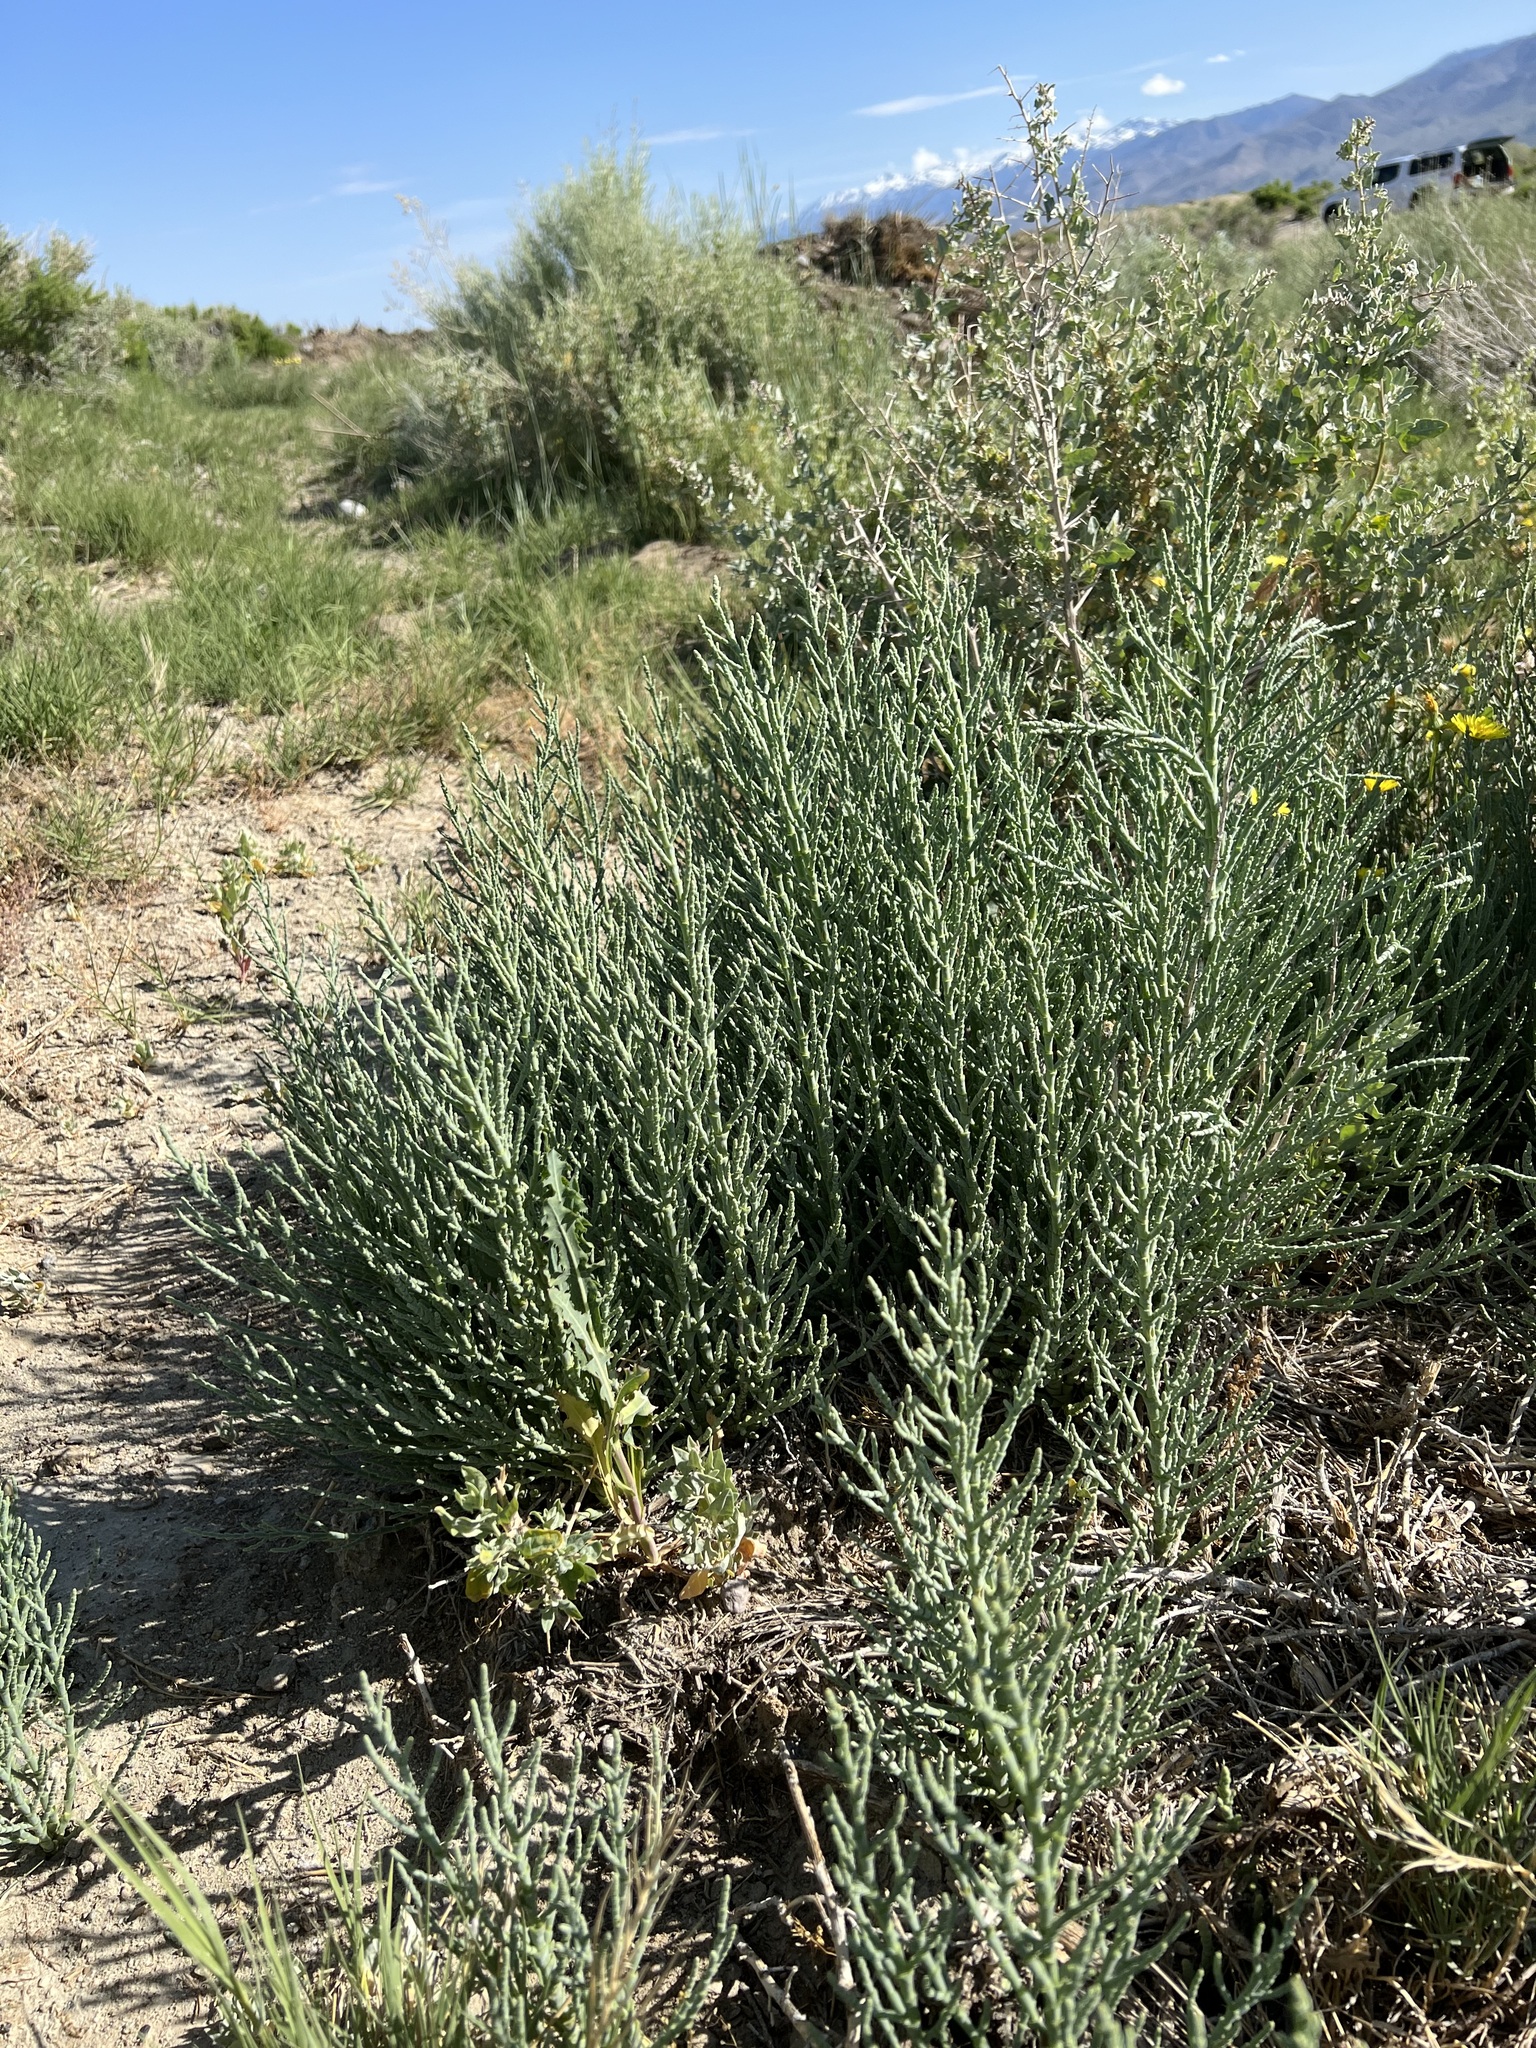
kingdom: Plantae
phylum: Tracheophyta
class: Magnoliopsida
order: Caryophyllales
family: Amaranthaceae
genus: Allenrolfea
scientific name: Allenrolfea occidentalis
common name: Iodine-bush
